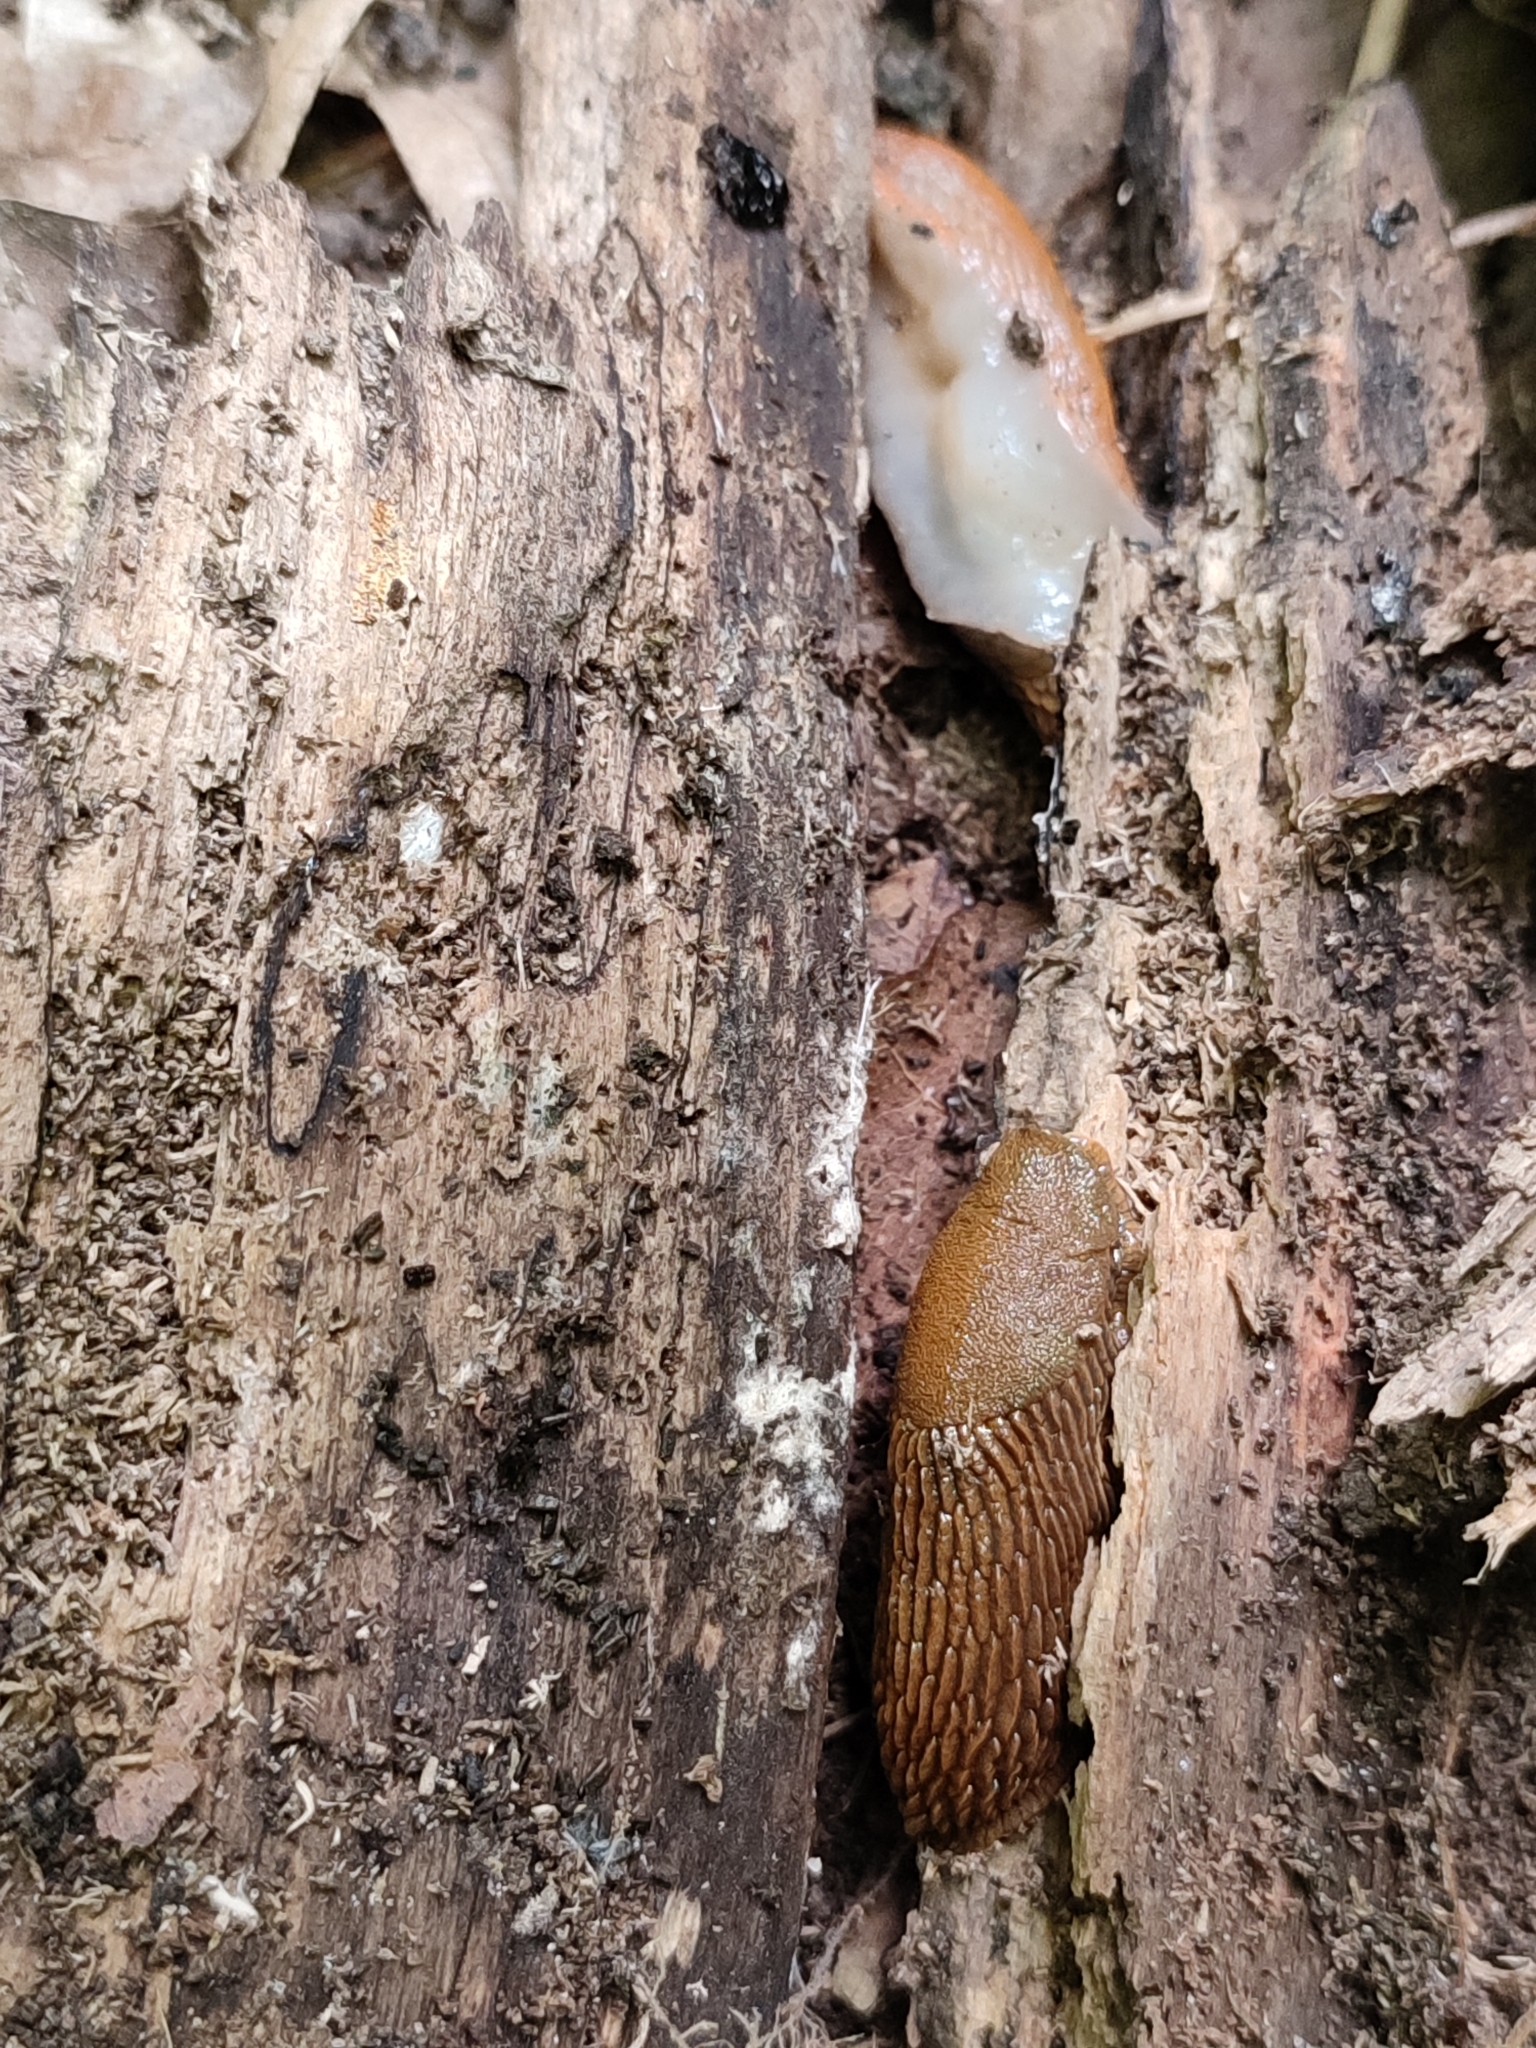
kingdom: Animalia
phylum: Mollusca
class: Gastropoda
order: Stylommatophora
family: Arionidae
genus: Arion
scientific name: Arion vulgaris
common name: Lusitanian slug
